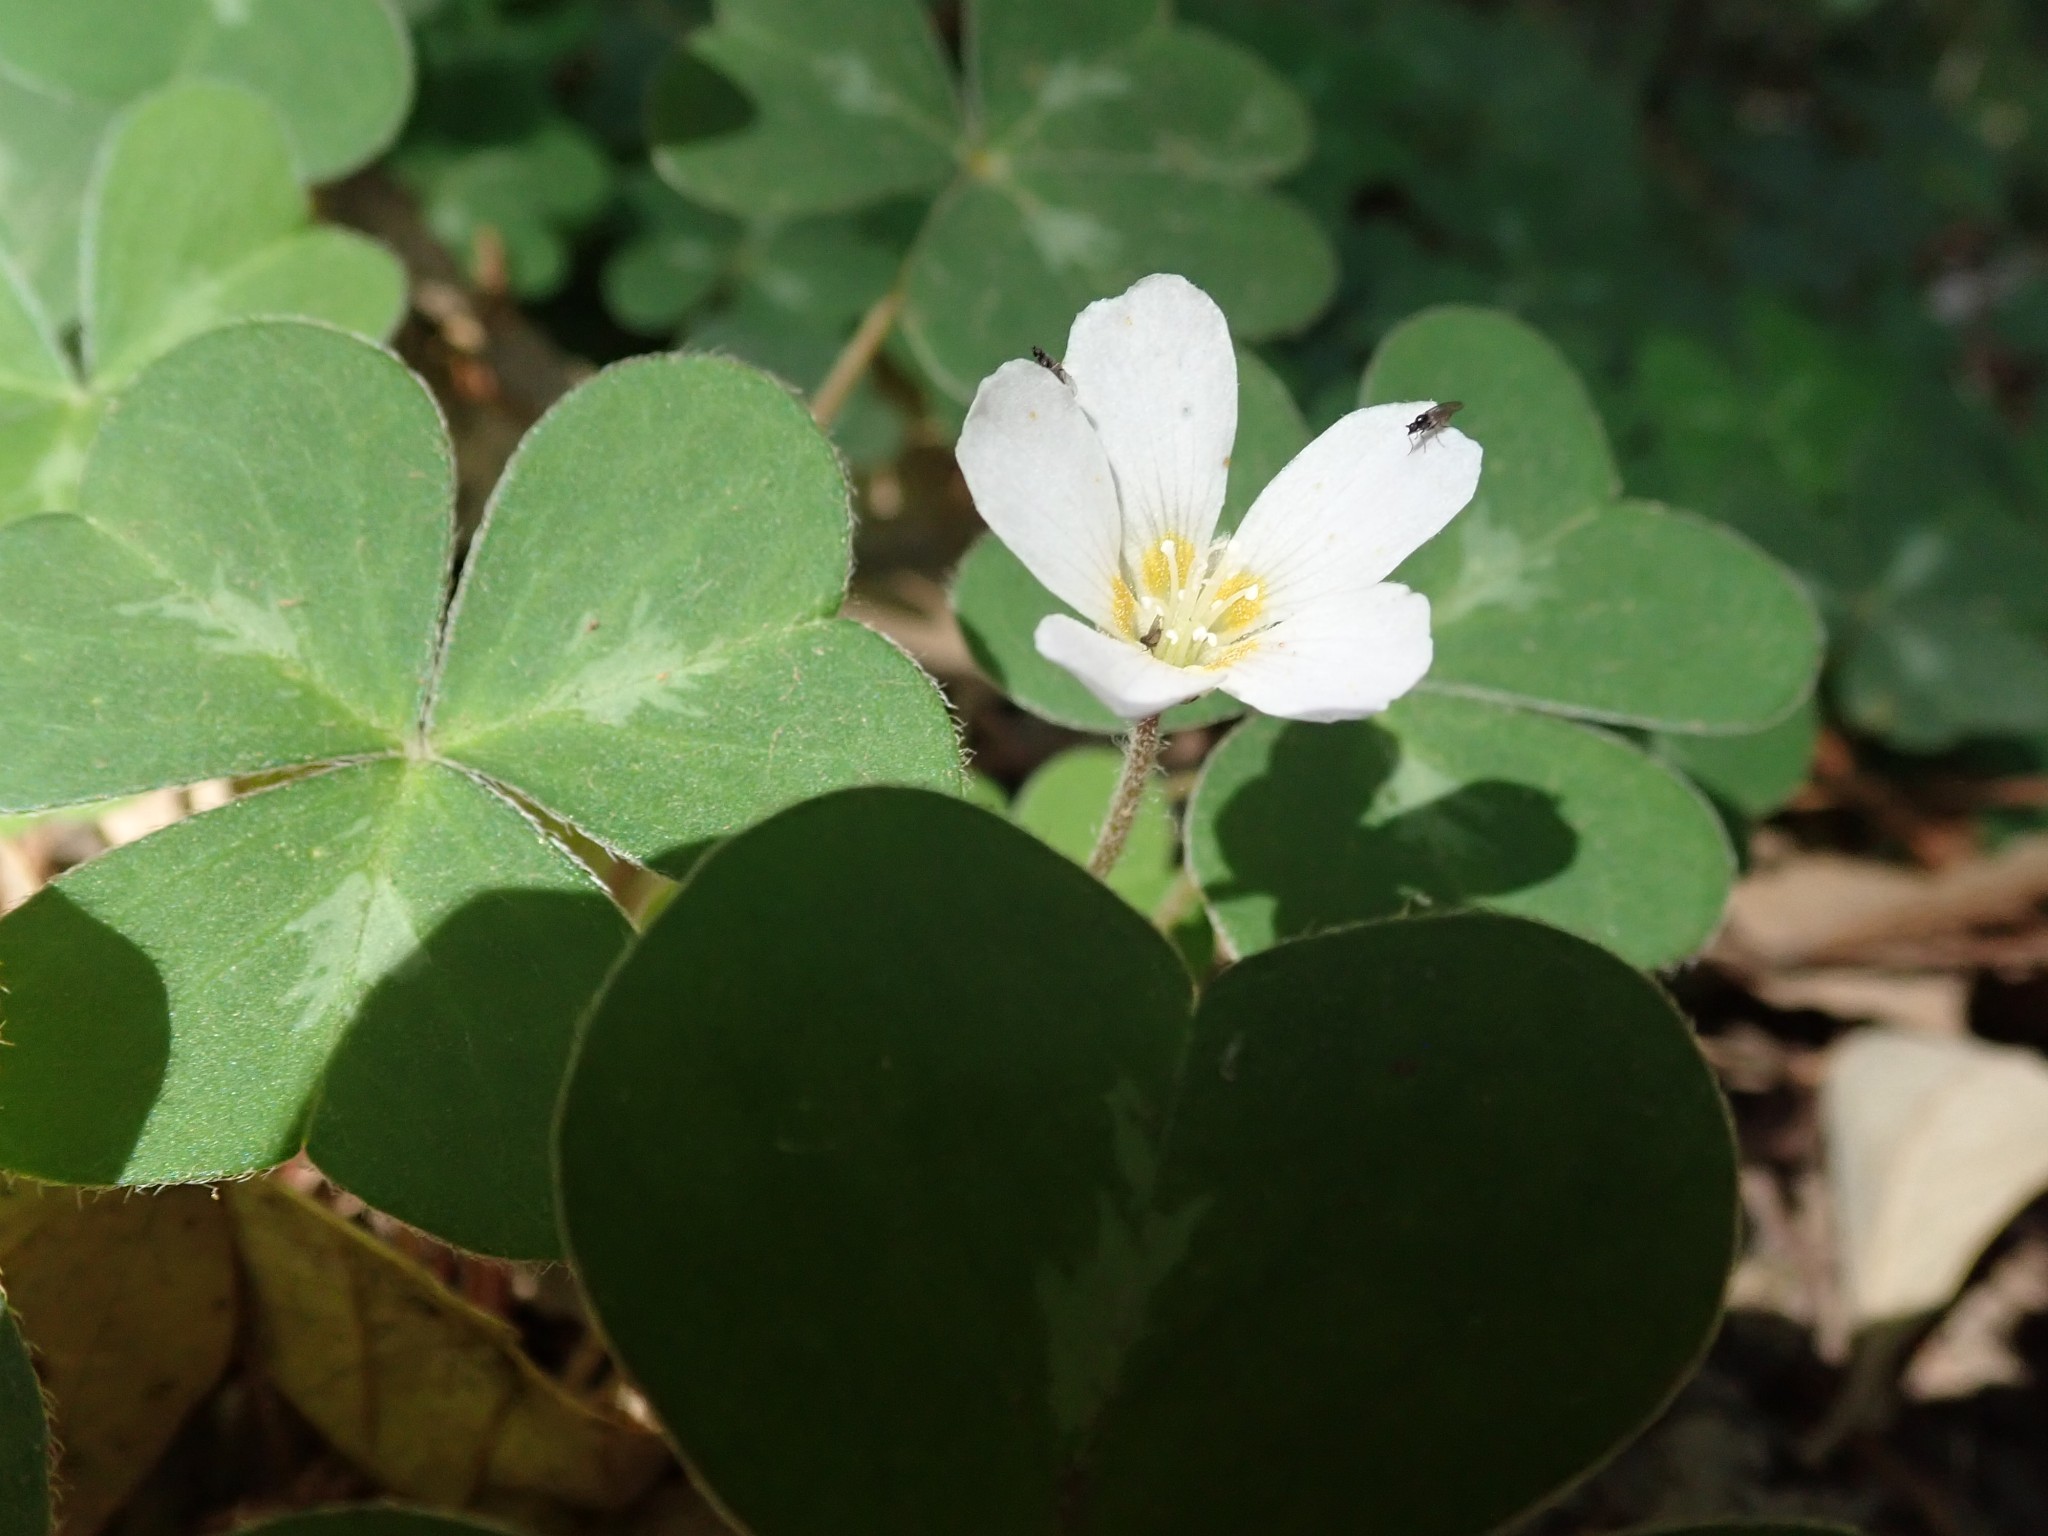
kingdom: Plantae
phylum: Tracheophyta
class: Magnoliopsida
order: Oxalidales
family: Oxalidaceae
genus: Oxalis
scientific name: Oxalis oregana
